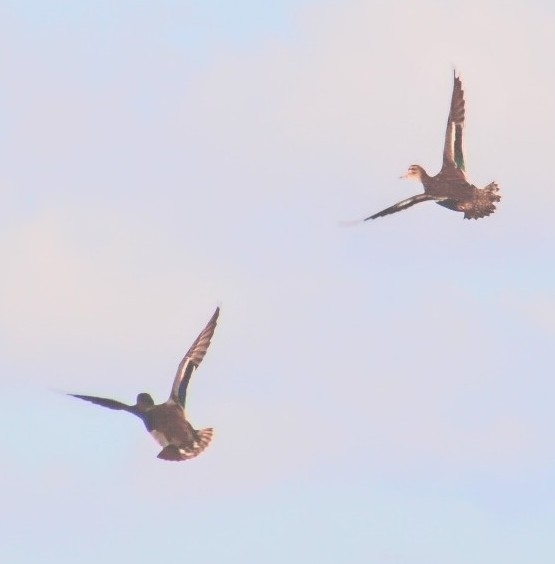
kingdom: Animalia
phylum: Chordata
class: Aves
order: Anseriformes
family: Anatidae
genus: Anas
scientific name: Anas crecca
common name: Eurasian teal
